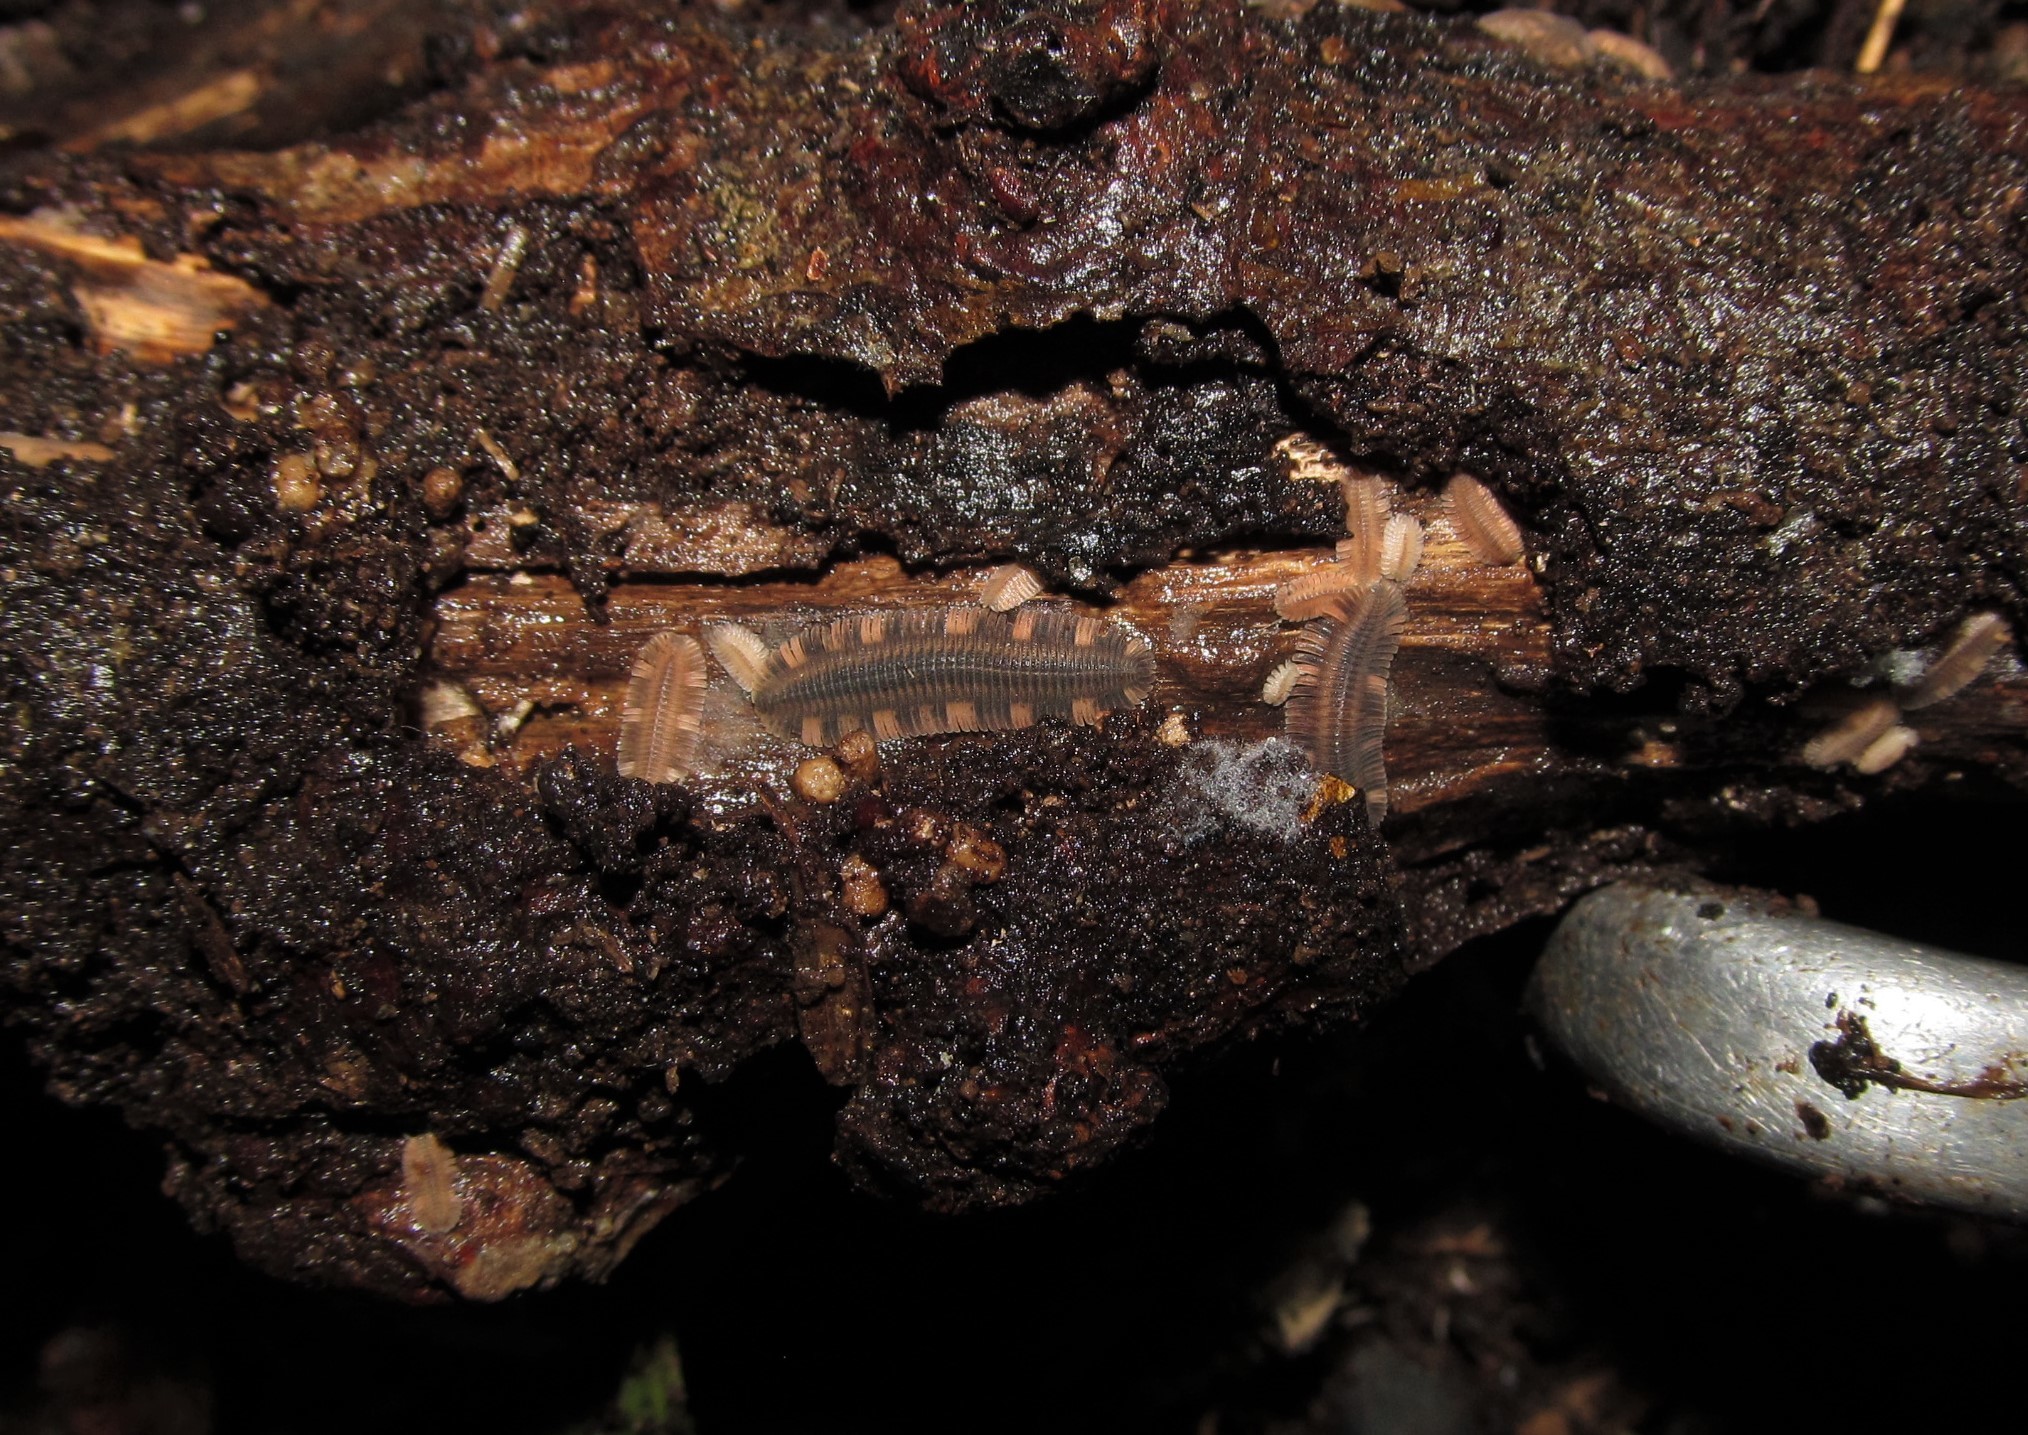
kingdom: Animalia
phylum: Arthropoda
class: Diplopoda
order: Platydesmida
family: Platydesmidae
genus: Platydesmus
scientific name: Platydesmus mexicanus
